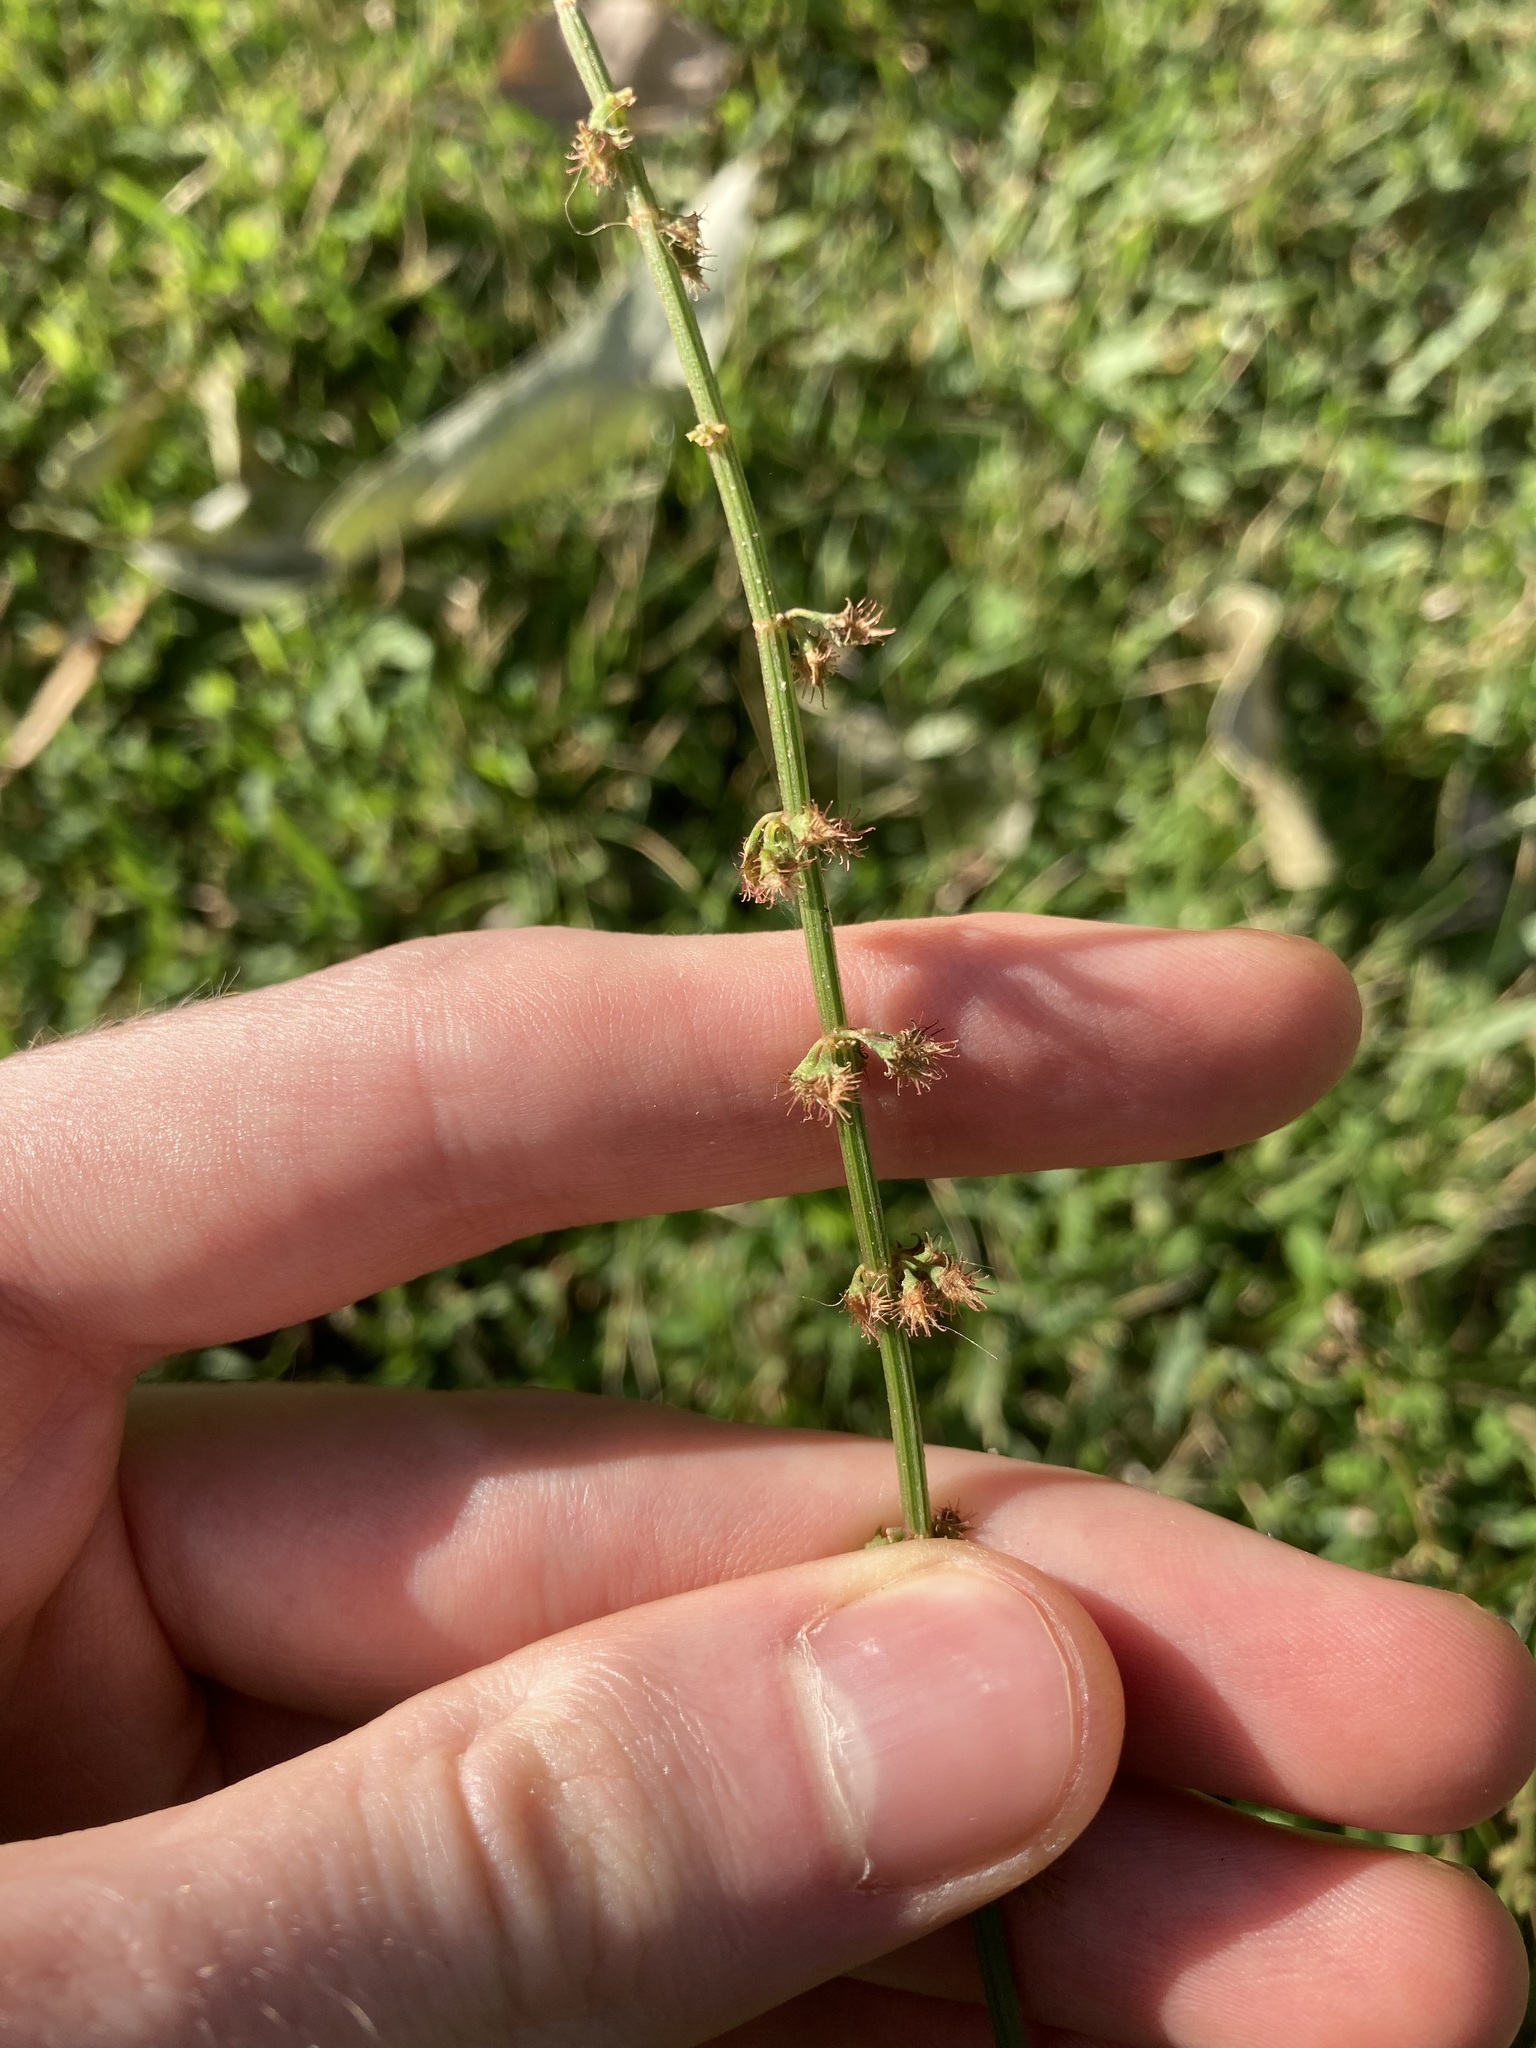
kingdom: Plantae
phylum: Tracheophyta
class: Magnoliopsida
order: Caryophyllales
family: Polygonaceae
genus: Rumex
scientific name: Rumex brownii
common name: Hooked dock
